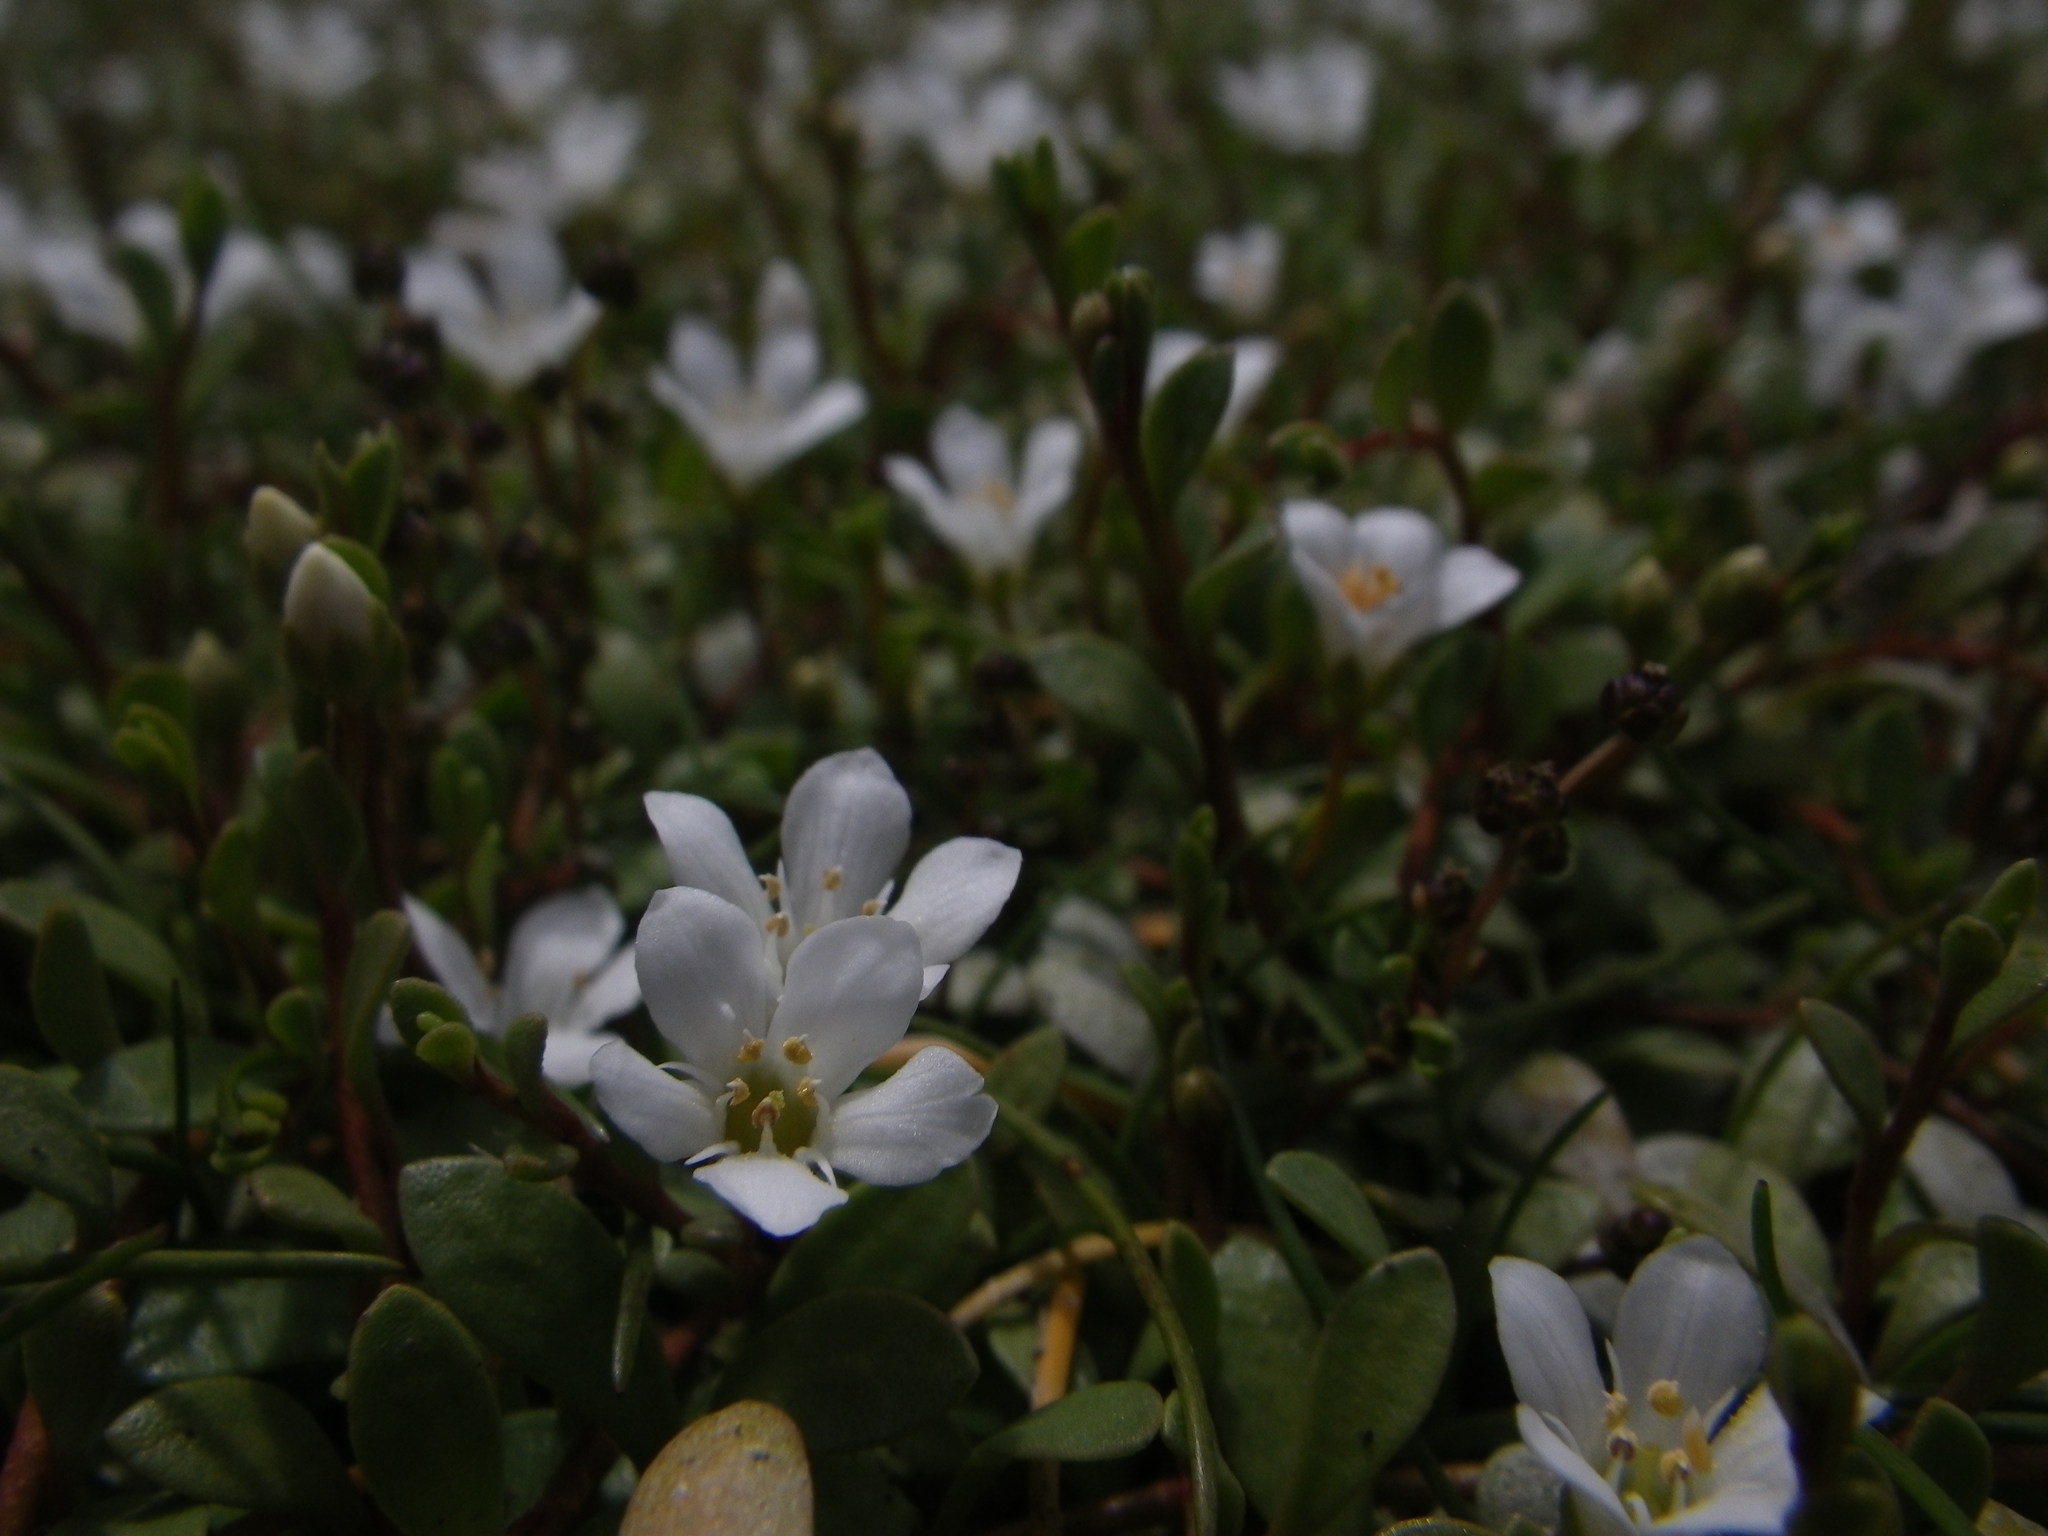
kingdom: Plantae
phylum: Tracheophyta
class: Magnoliopsida
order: Ericales
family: Primulaceae
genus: Samolus
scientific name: Samolus repens
